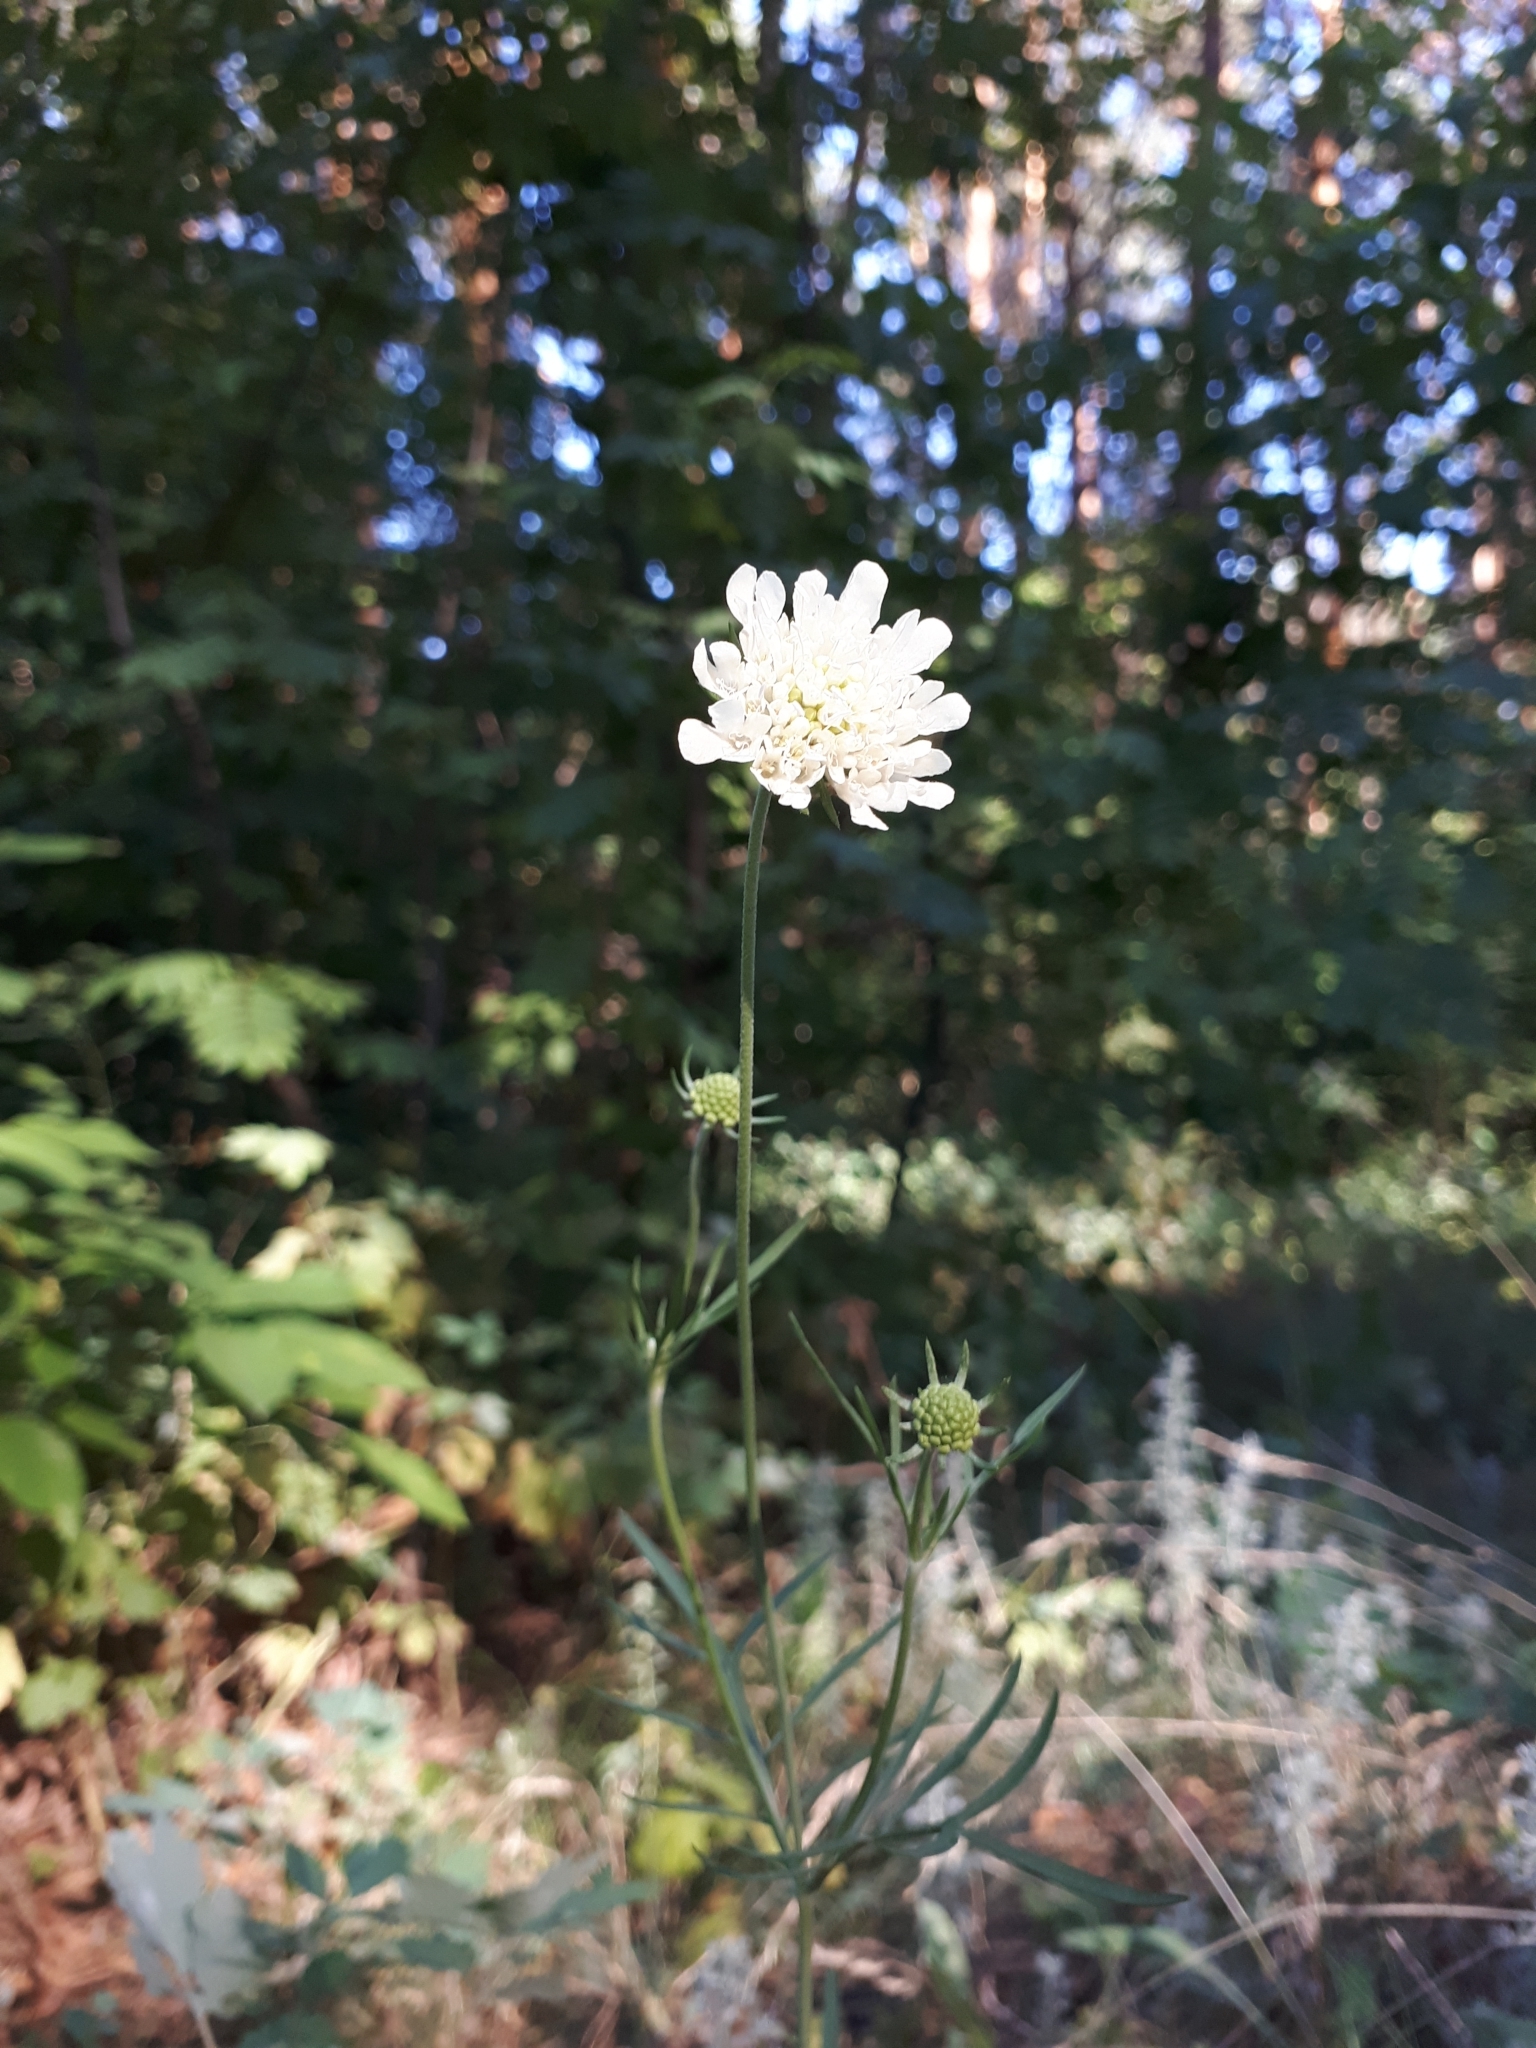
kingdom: Plantae
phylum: Tracheophyta
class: Magnoliopsida
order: Dipsacales
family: Caprifoliaceae
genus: Scabiosa
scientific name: Scabiosa ochroleuca
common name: Cream pincushions
